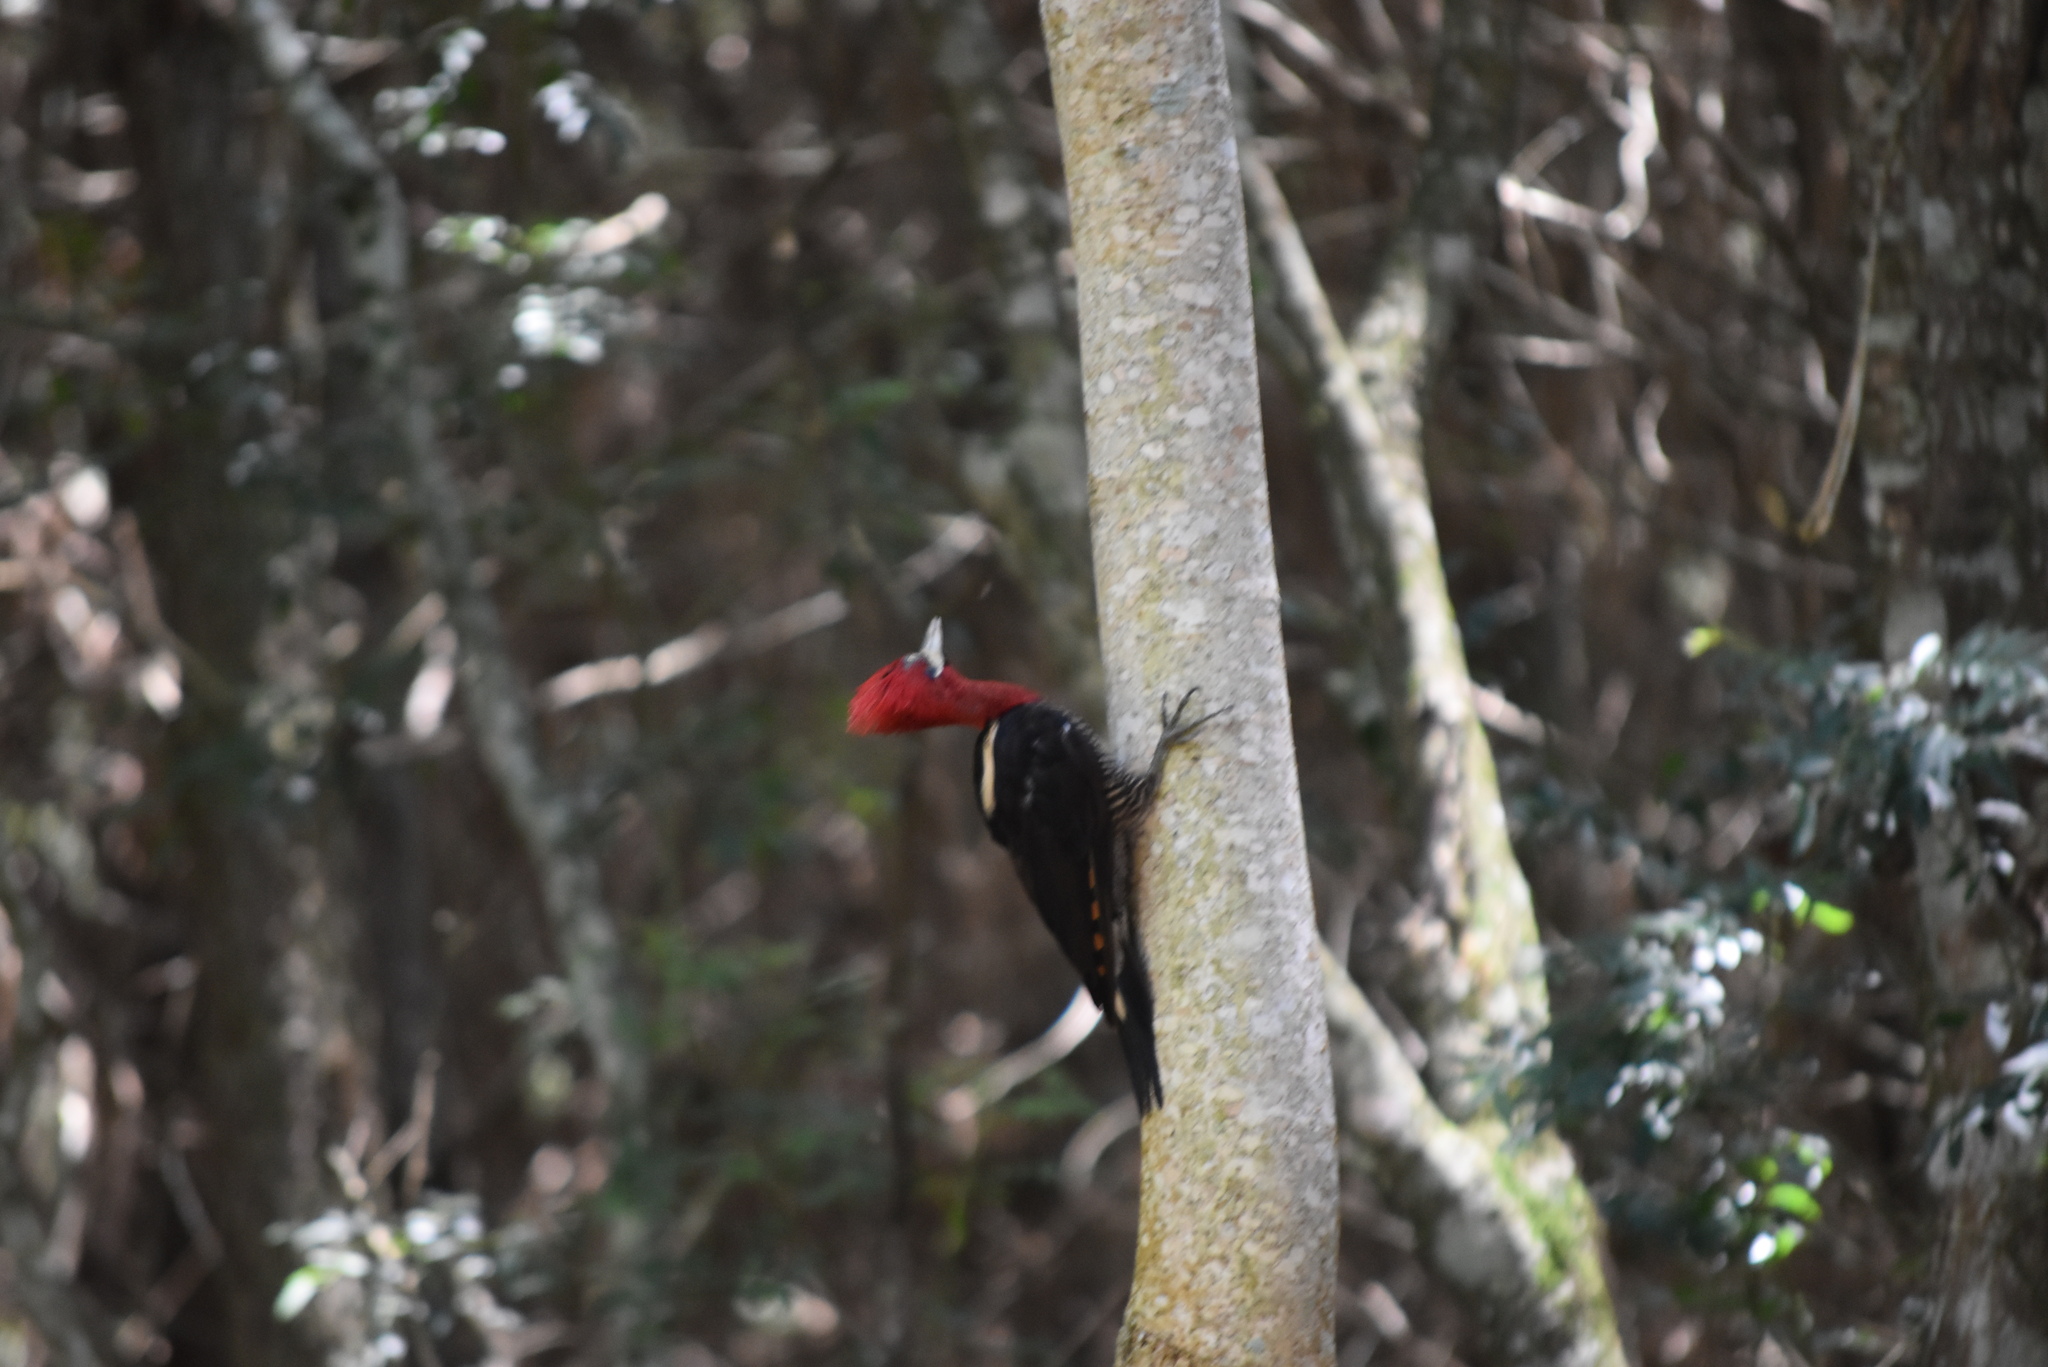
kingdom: Animalia
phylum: Chordata
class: Aves
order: Piciformes
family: Picidae
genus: Campephilus
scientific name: Campephilus robustus
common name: Robust woodpecker
